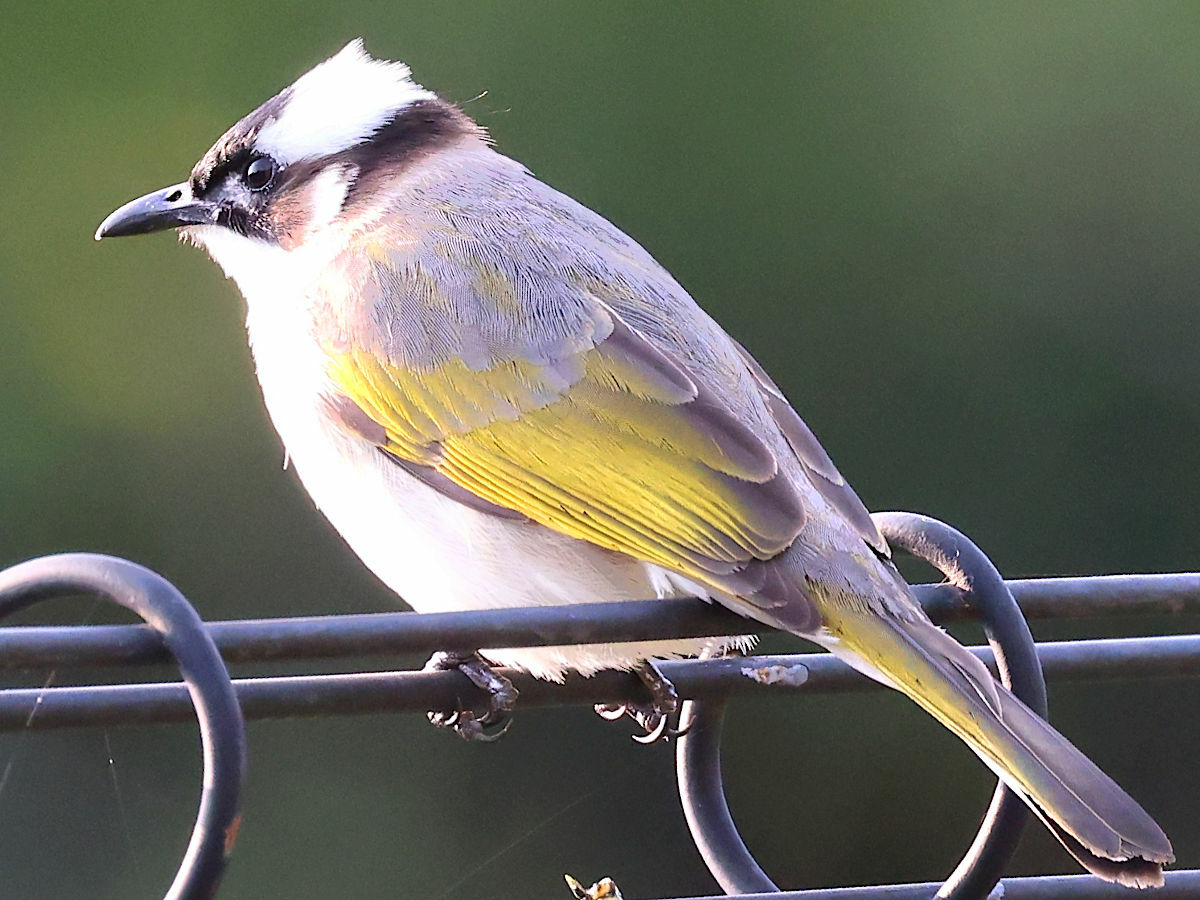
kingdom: Animalia
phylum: Chordata
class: Aves
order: Passeriformes
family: Pycnonotidae
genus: Pycnonotus
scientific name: Pycnonotus sinensis
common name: Light-vented bulbul
